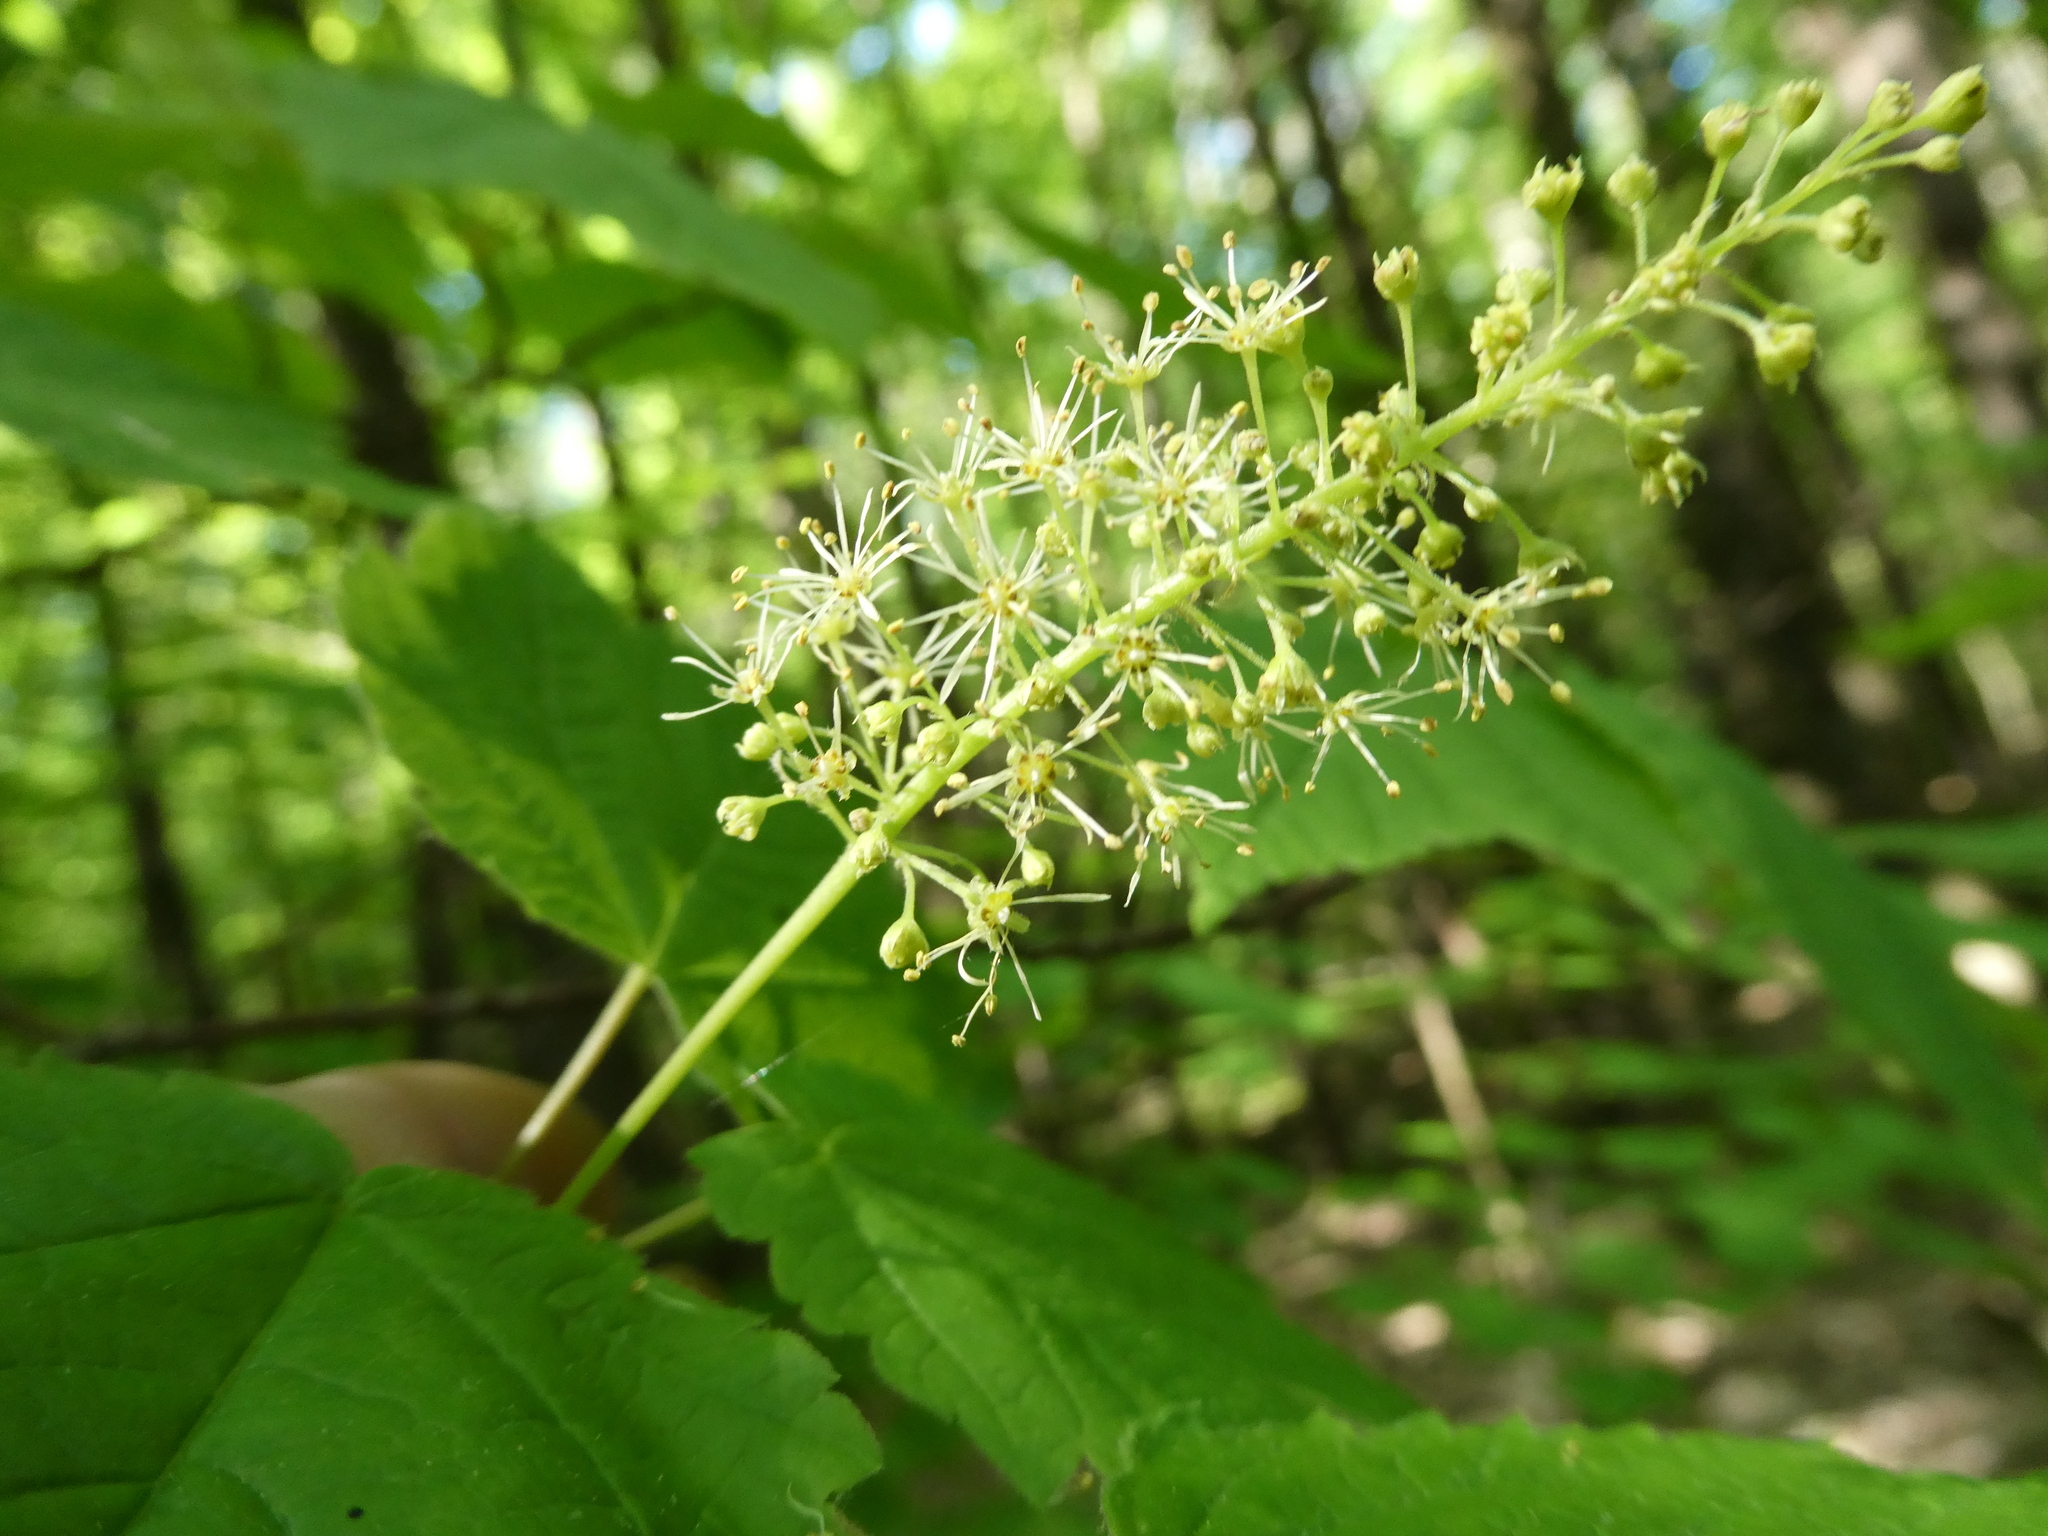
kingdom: Plantae
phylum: Tracheophyta
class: Magnoliopsida
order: Sapindales
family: Sapindaceae
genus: Acer
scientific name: Acer spicatum
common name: Mountain maple
